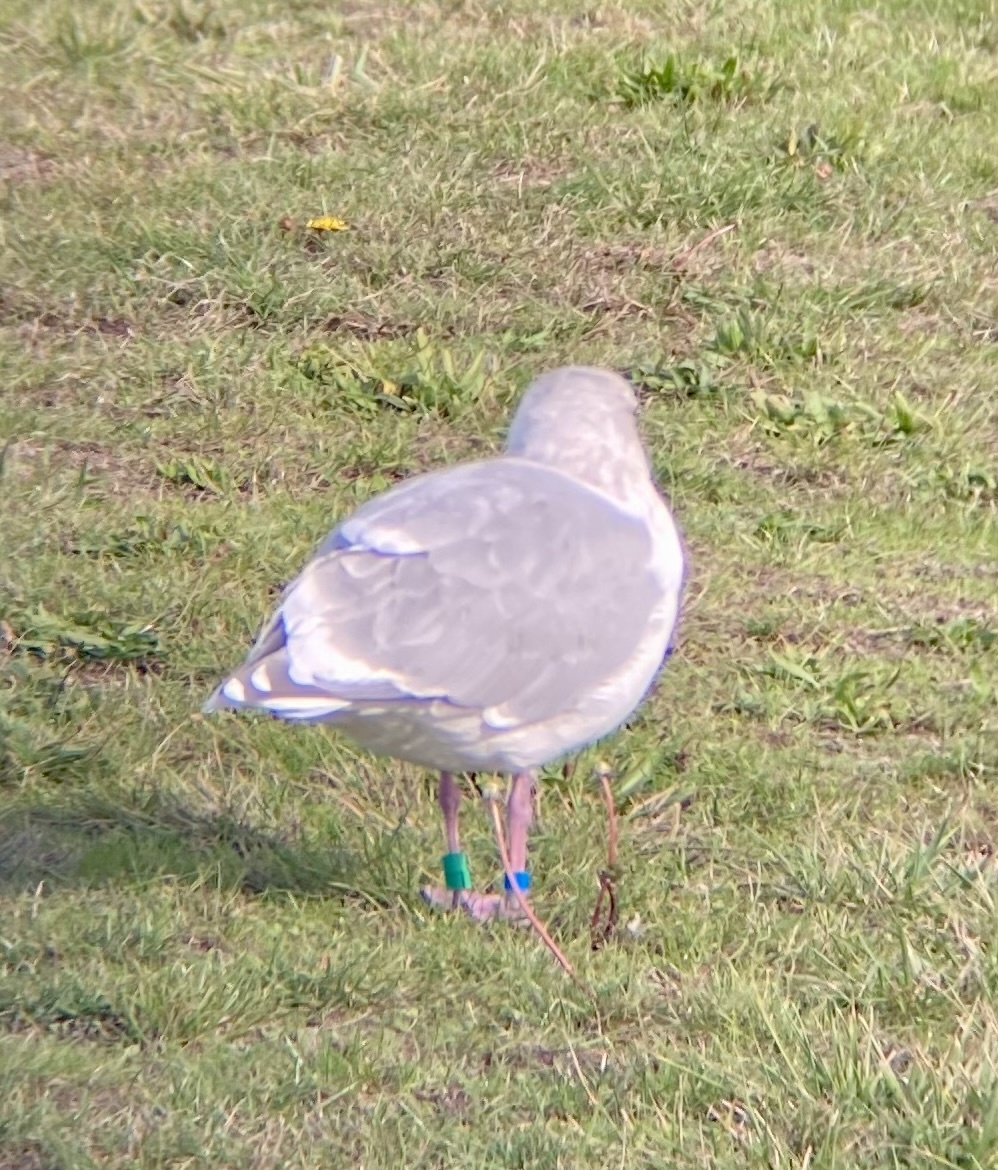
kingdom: Animalia
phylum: Chordata
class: Aves
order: Charadriiformes
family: Laridae
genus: Larus
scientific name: Larus glaucescens
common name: Glaucous-winged gull
